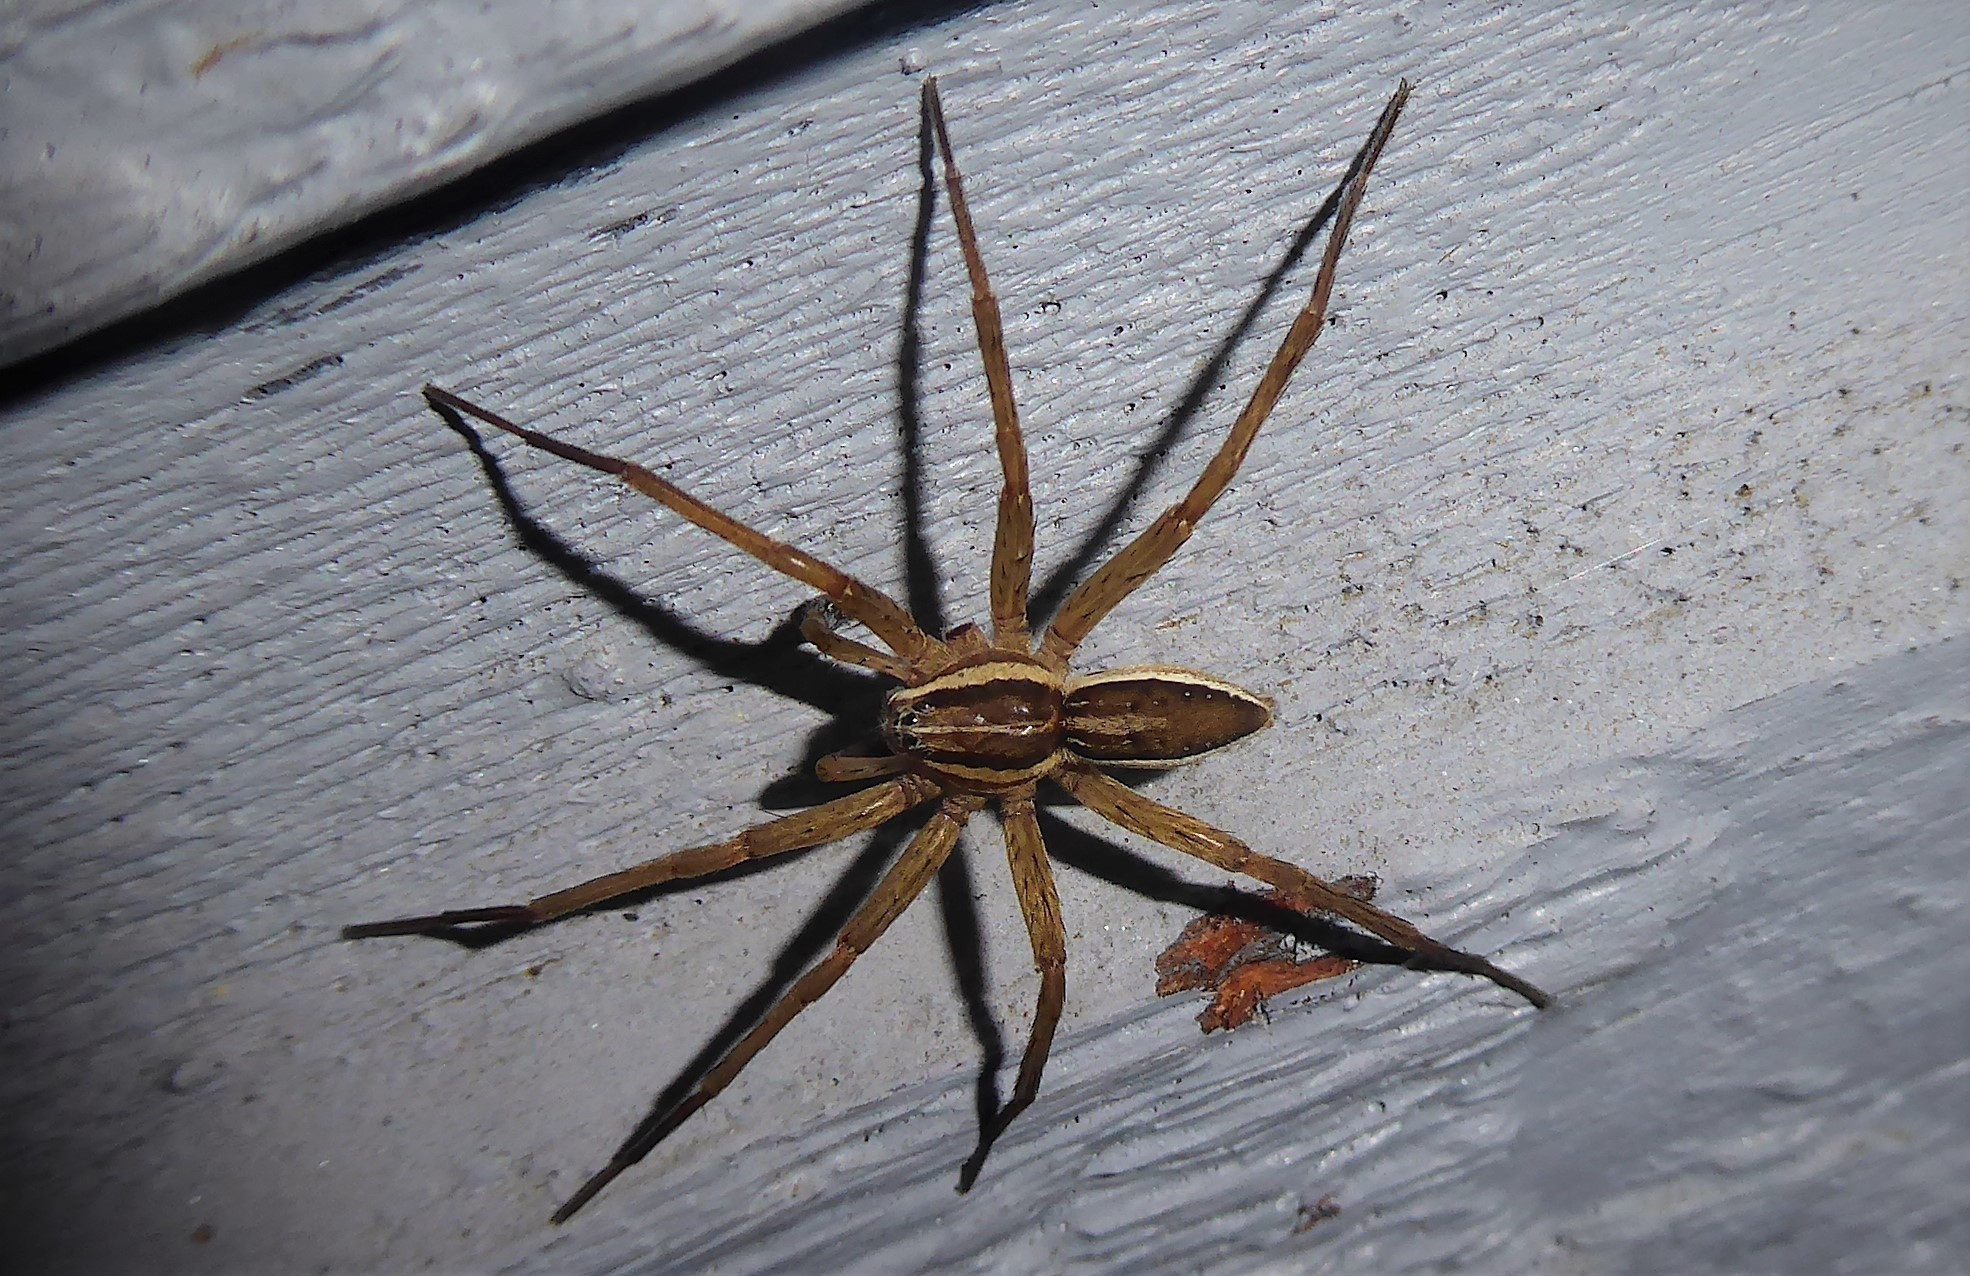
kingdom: Animalia
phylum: Arthropoda
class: Arachnida
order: Araneae
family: Pisauridae
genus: Dolomedes
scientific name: Dolomedes minor
